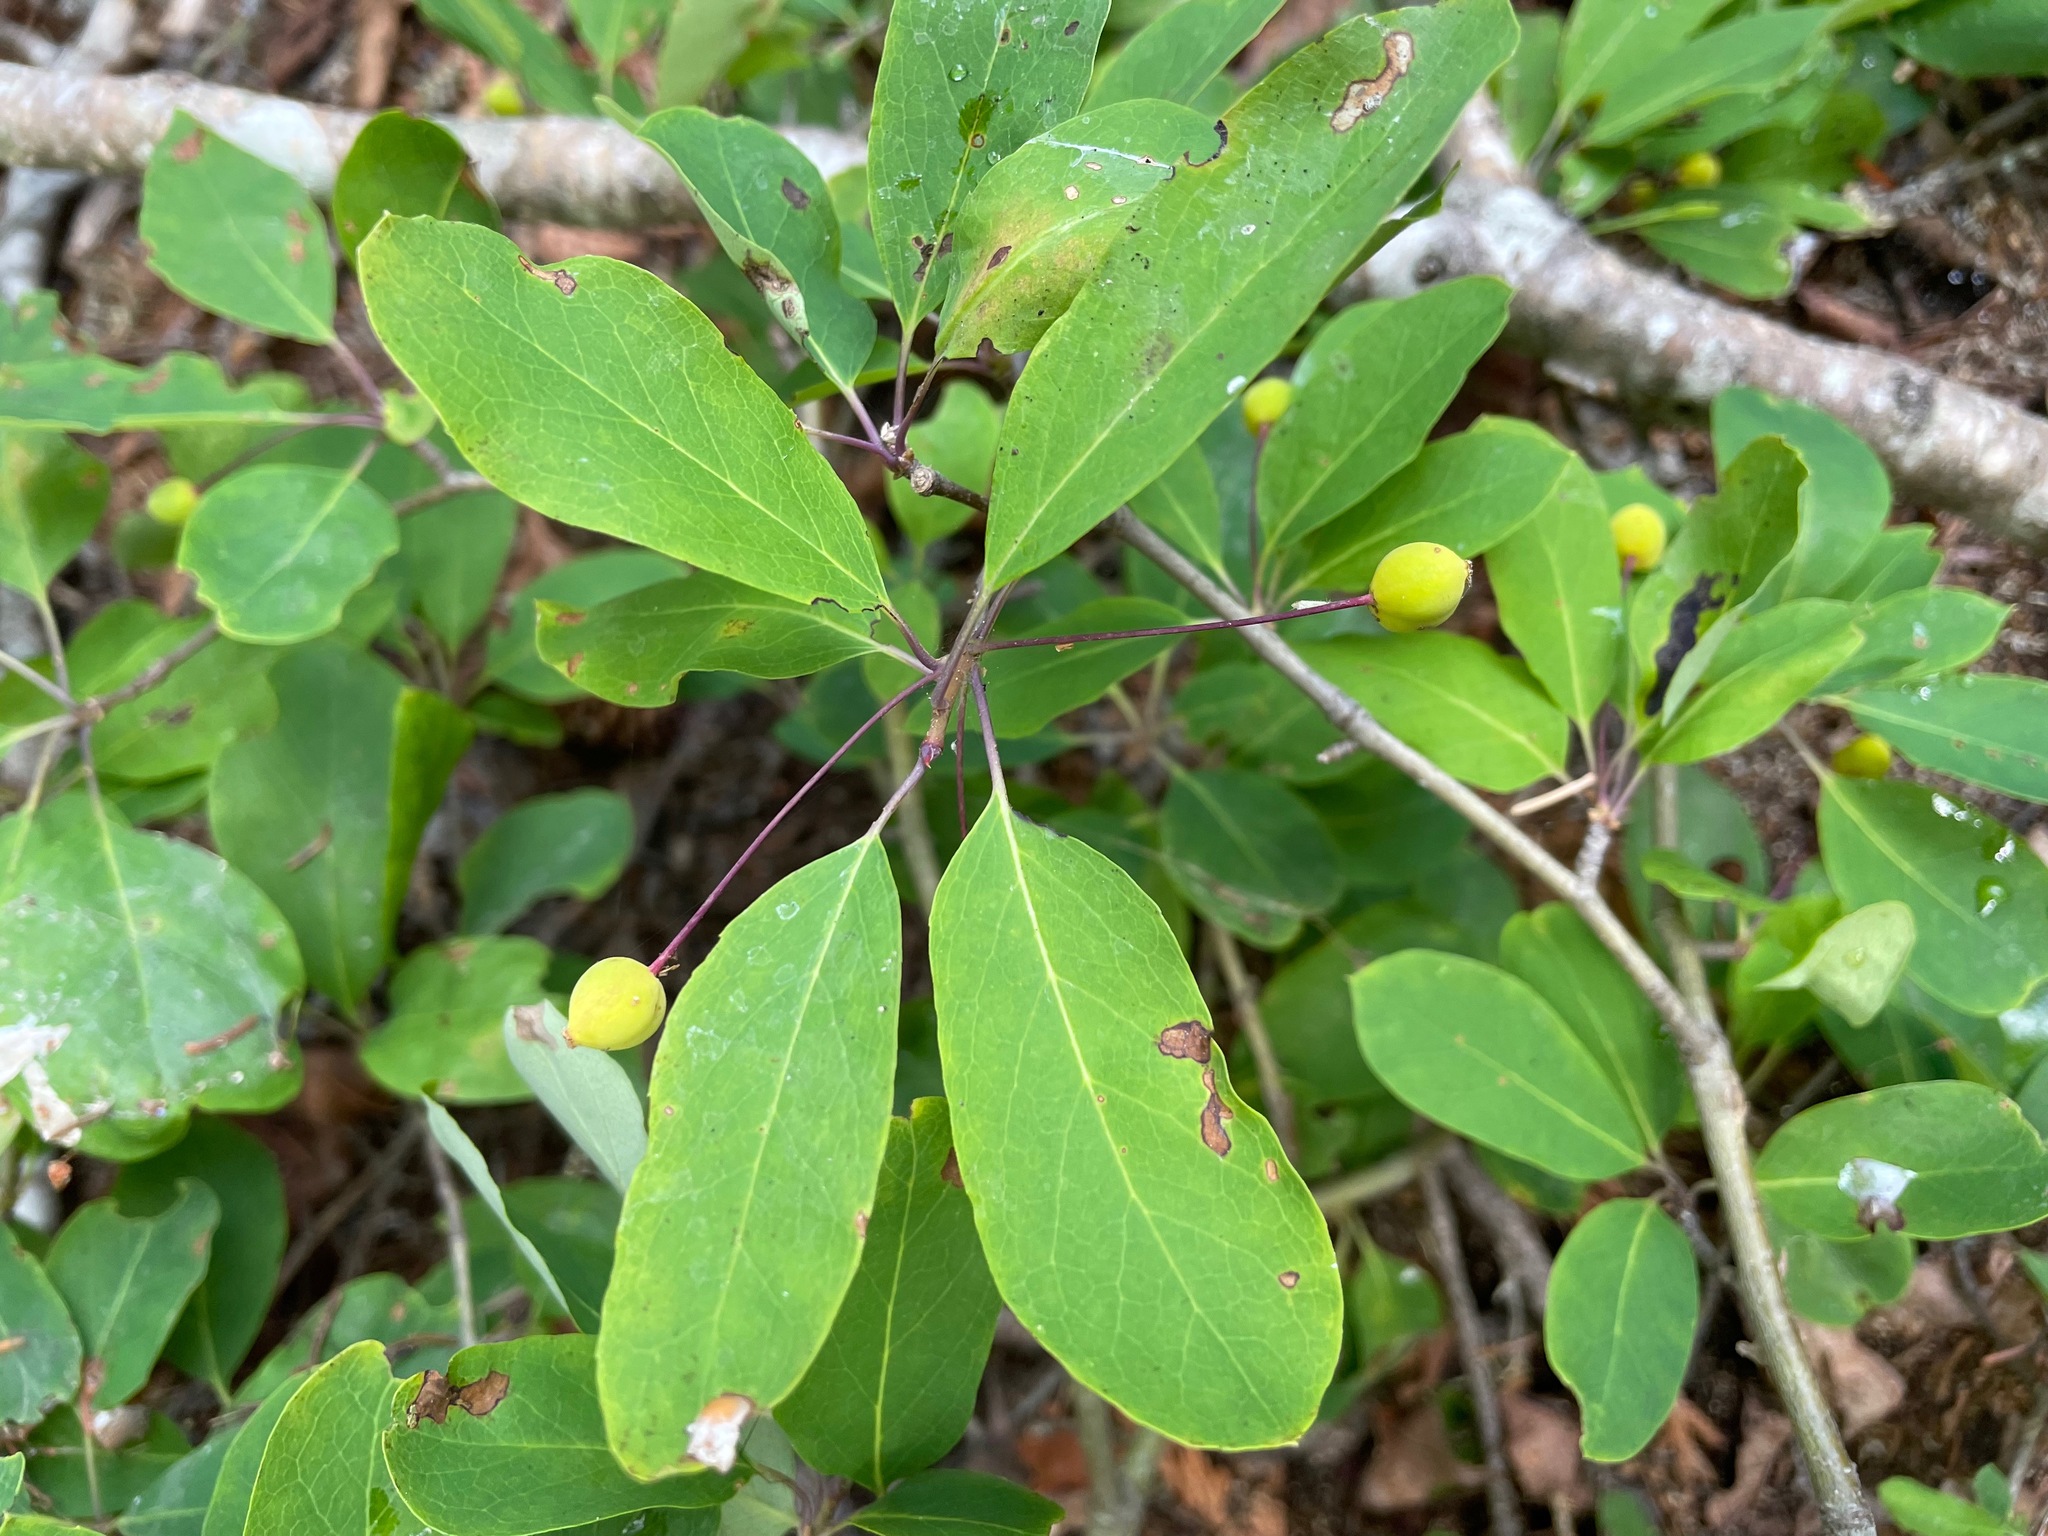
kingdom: Plantae
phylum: Tracheophyta
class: Magnoliopsida
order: Aquifoliales
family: Aquifoliaceae
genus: Ilex
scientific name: Ilex mucronata
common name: Catberry
